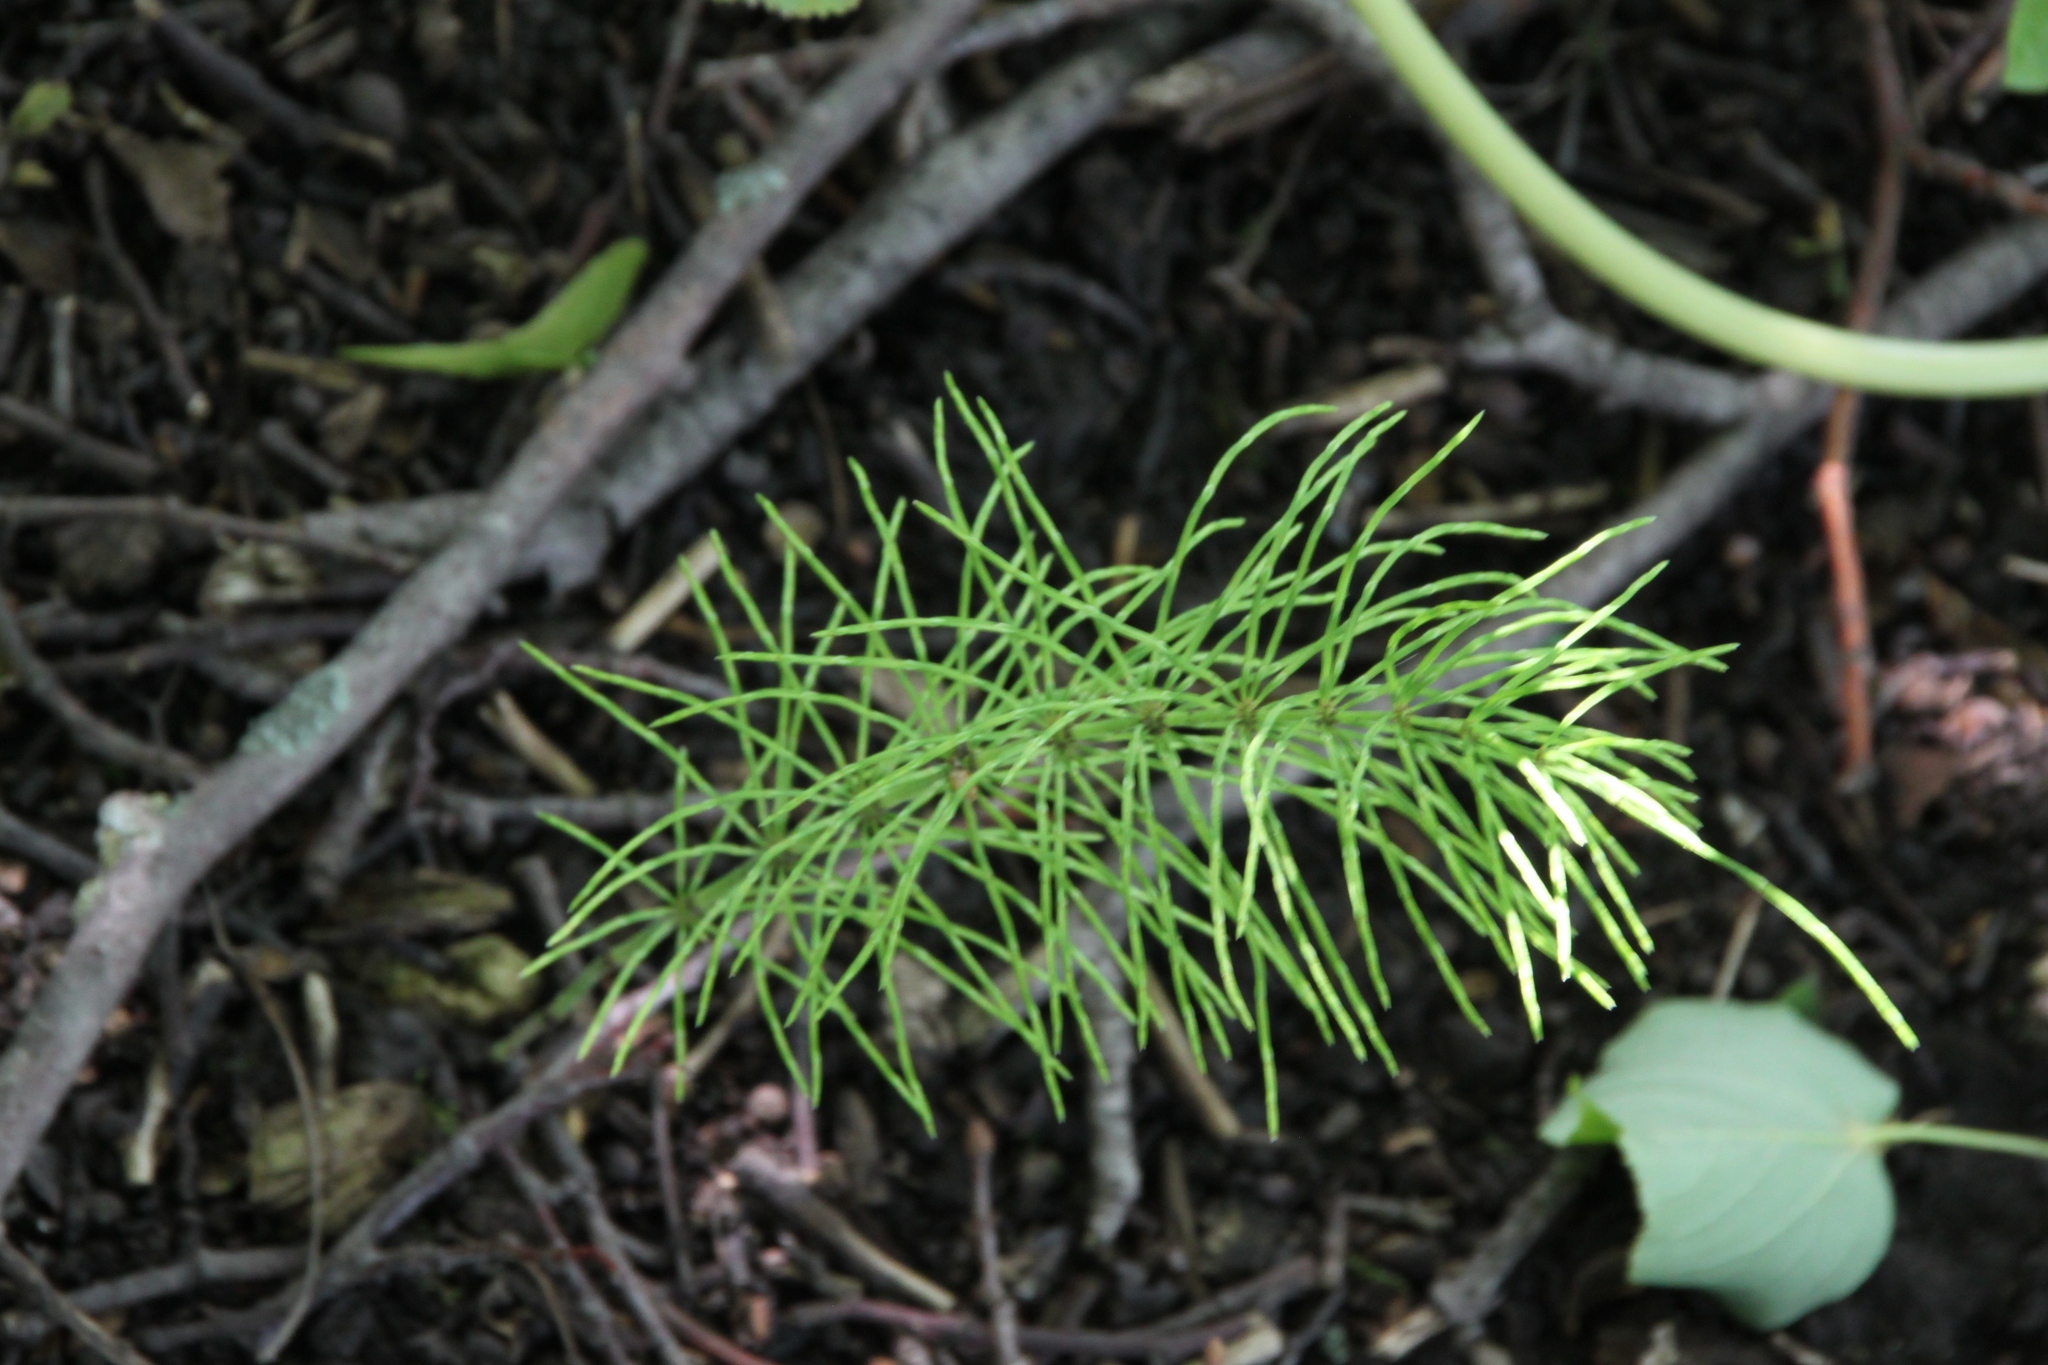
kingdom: Plantae
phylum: Tracheophyta
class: Polypodiopsida
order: Equisetales
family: Equisetaceae
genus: Equisetum
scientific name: Equisetum arvense
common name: Field horsetail
